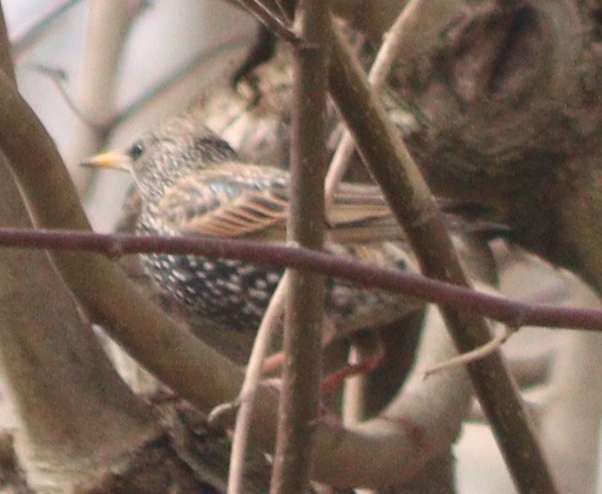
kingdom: Animalia
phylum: Chordata
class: Aves
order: Passeriformes
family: Sturnidae
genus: Sturnus
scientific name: Sturnus vulgaris
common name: Common starling
